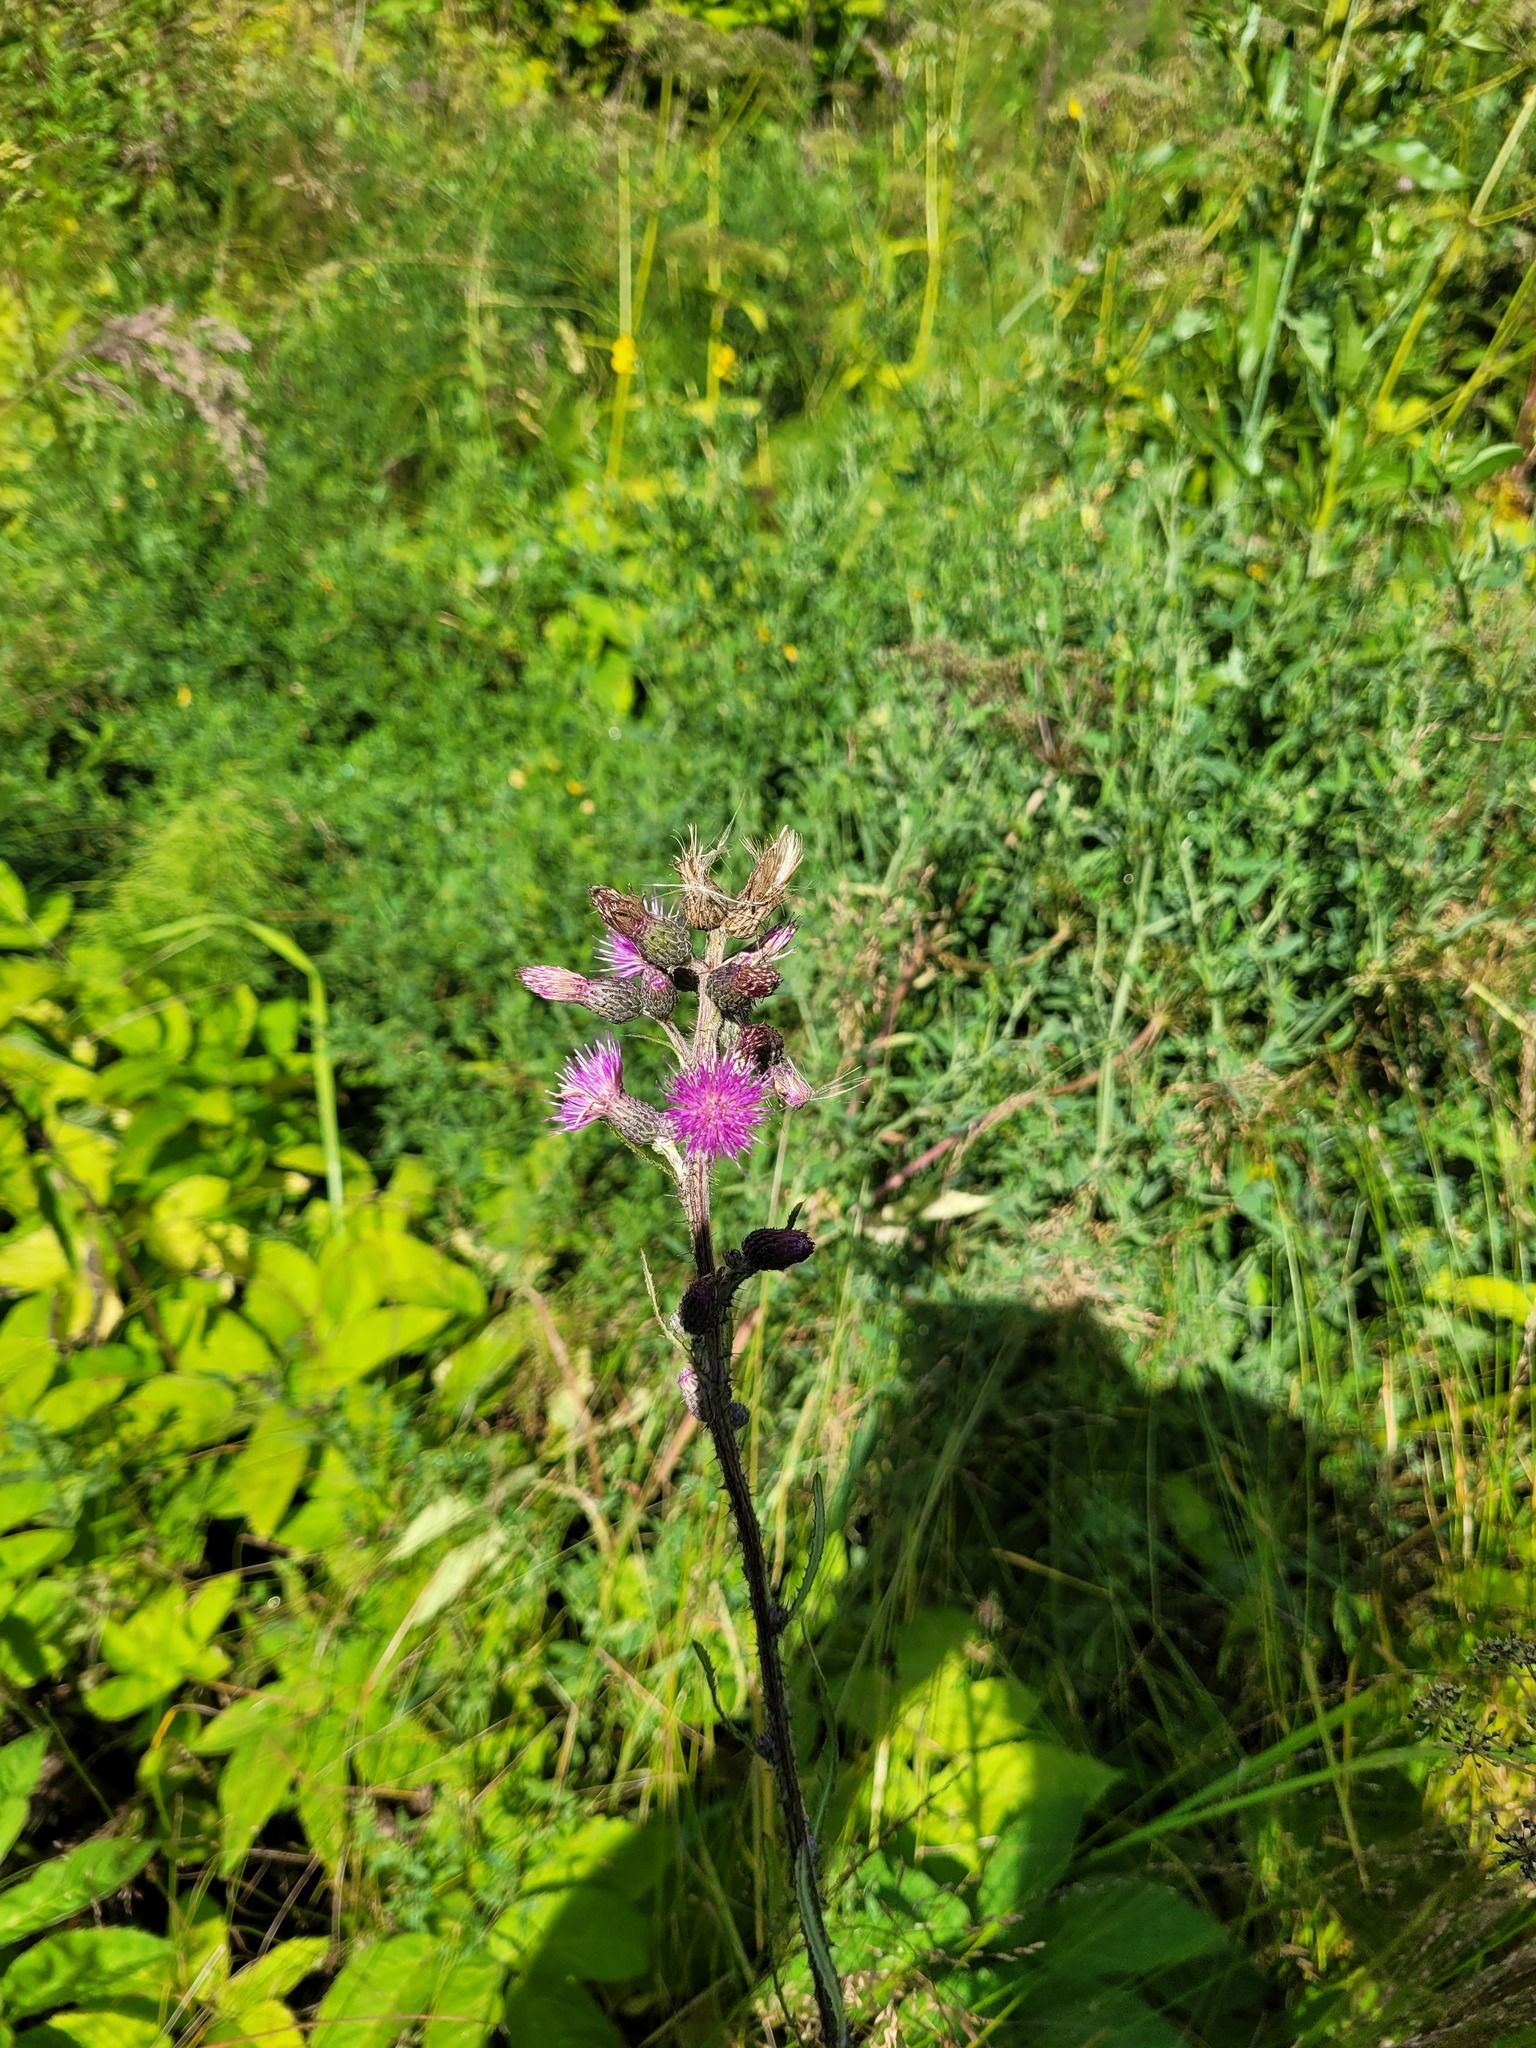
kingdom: Plantae
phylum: Tracheophyta
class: Magnoliopsida
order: Asterales
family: Asteraceae
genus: Cirsium
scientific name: Cirsium palustre
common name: Marsh thistle
